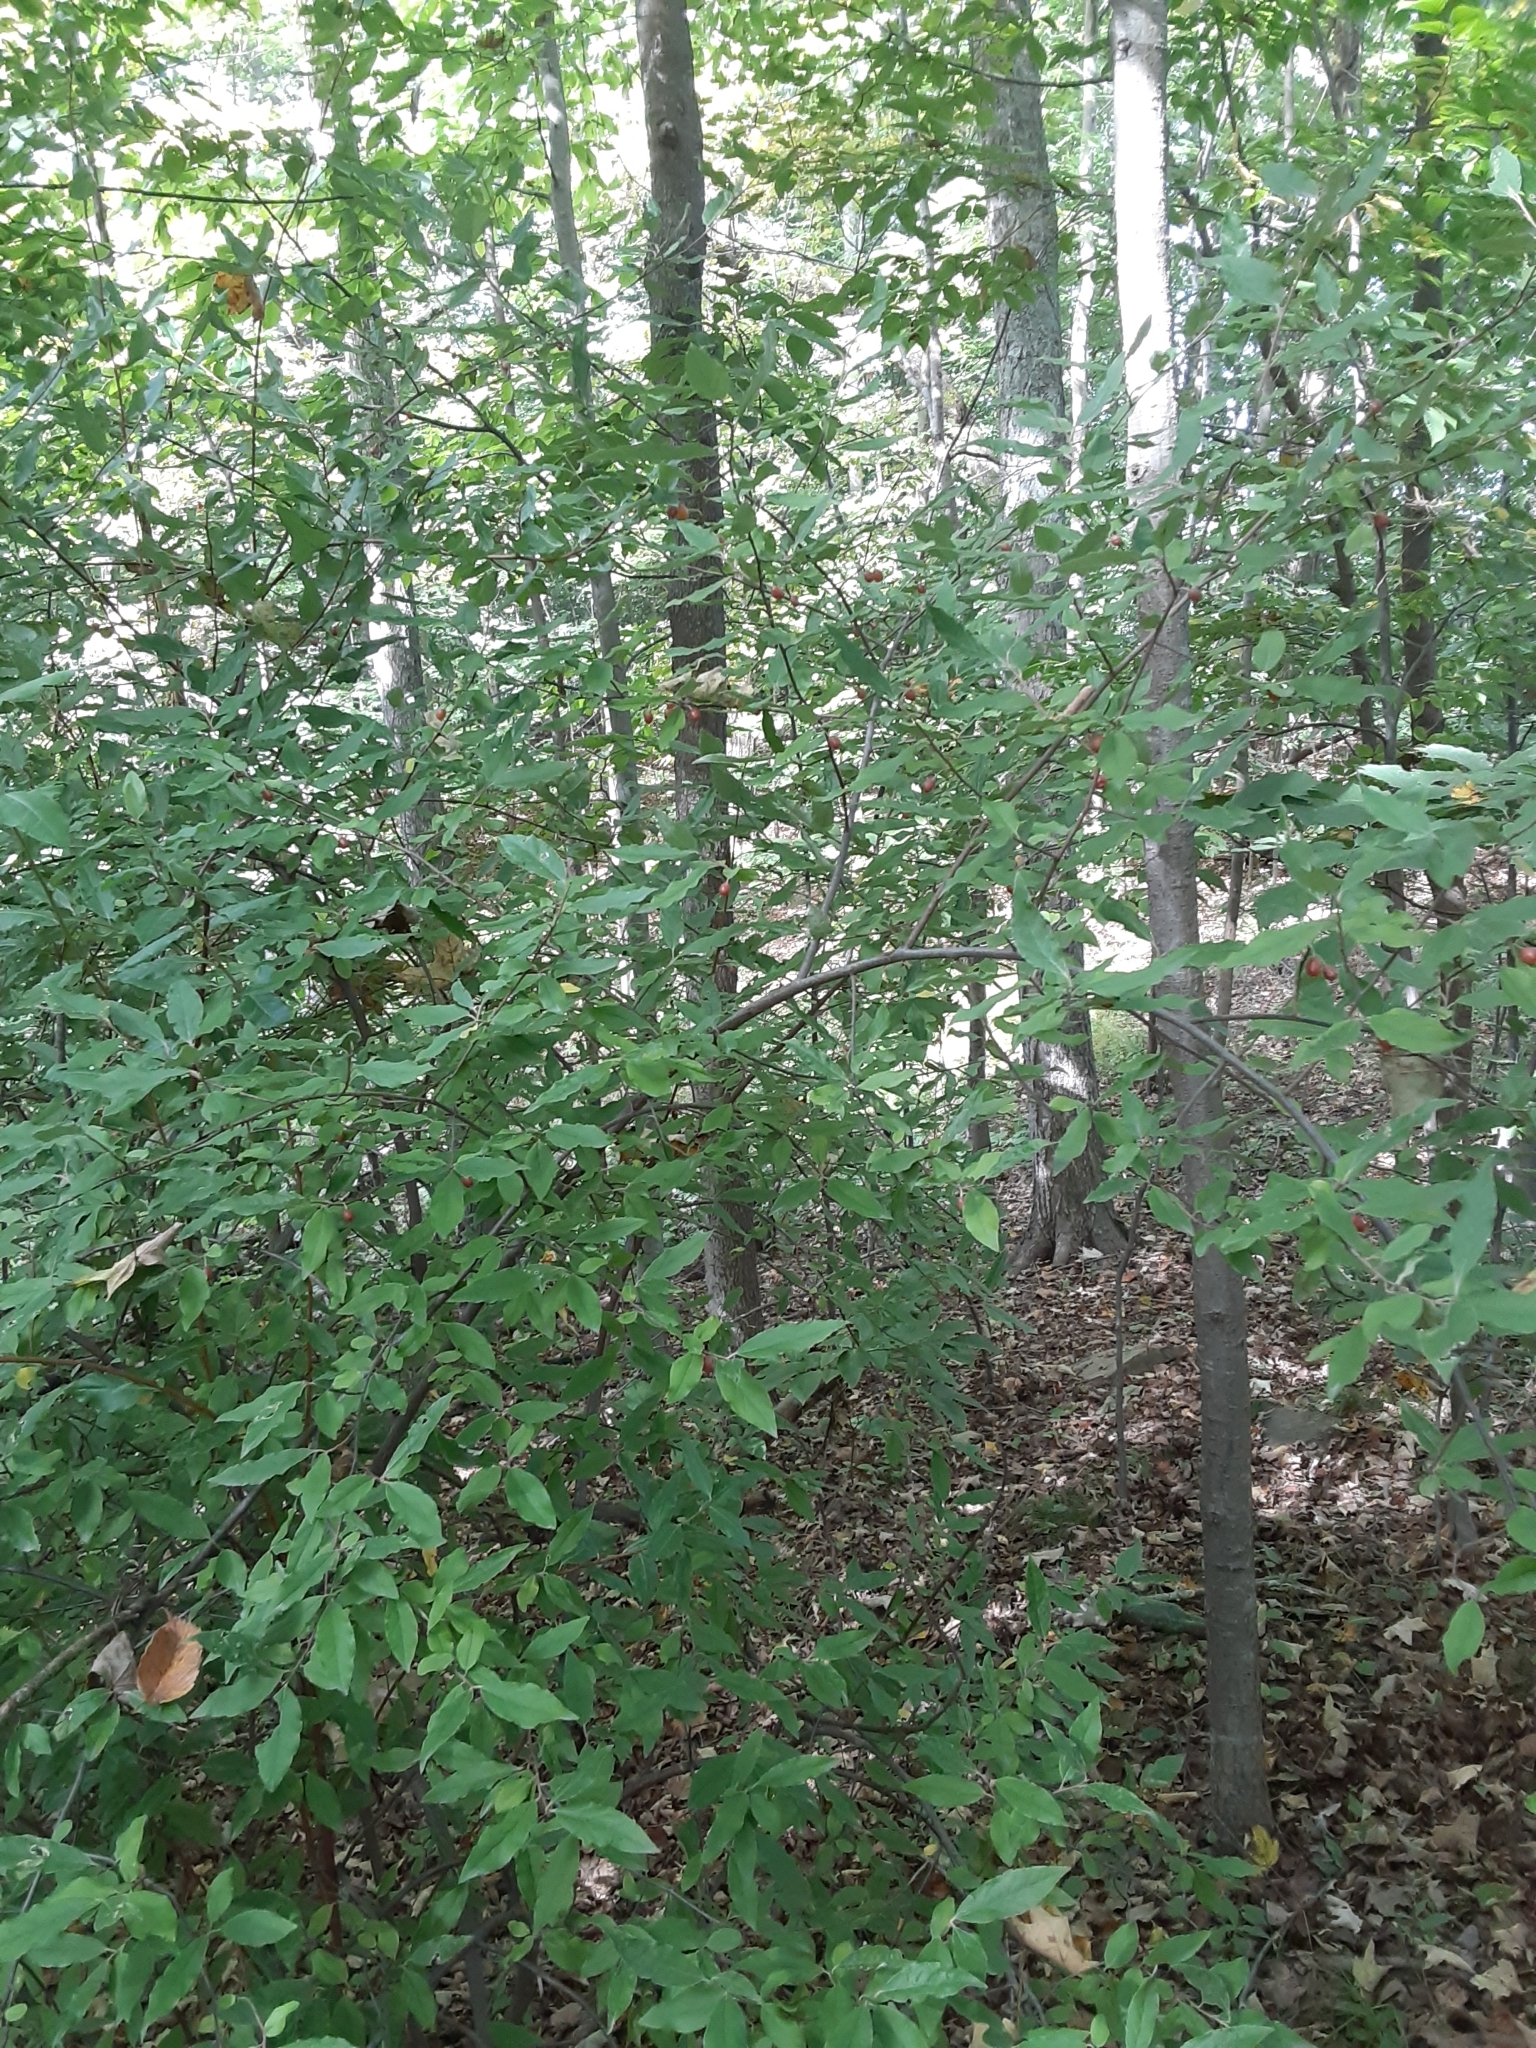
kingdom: Plantae
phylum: Tracheophyta
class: Magnoliopsida
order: Rosales
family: Elaeagnaceae
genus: Elaeagnus
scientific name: Elaeagnus umbellata
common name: Autumn olive
